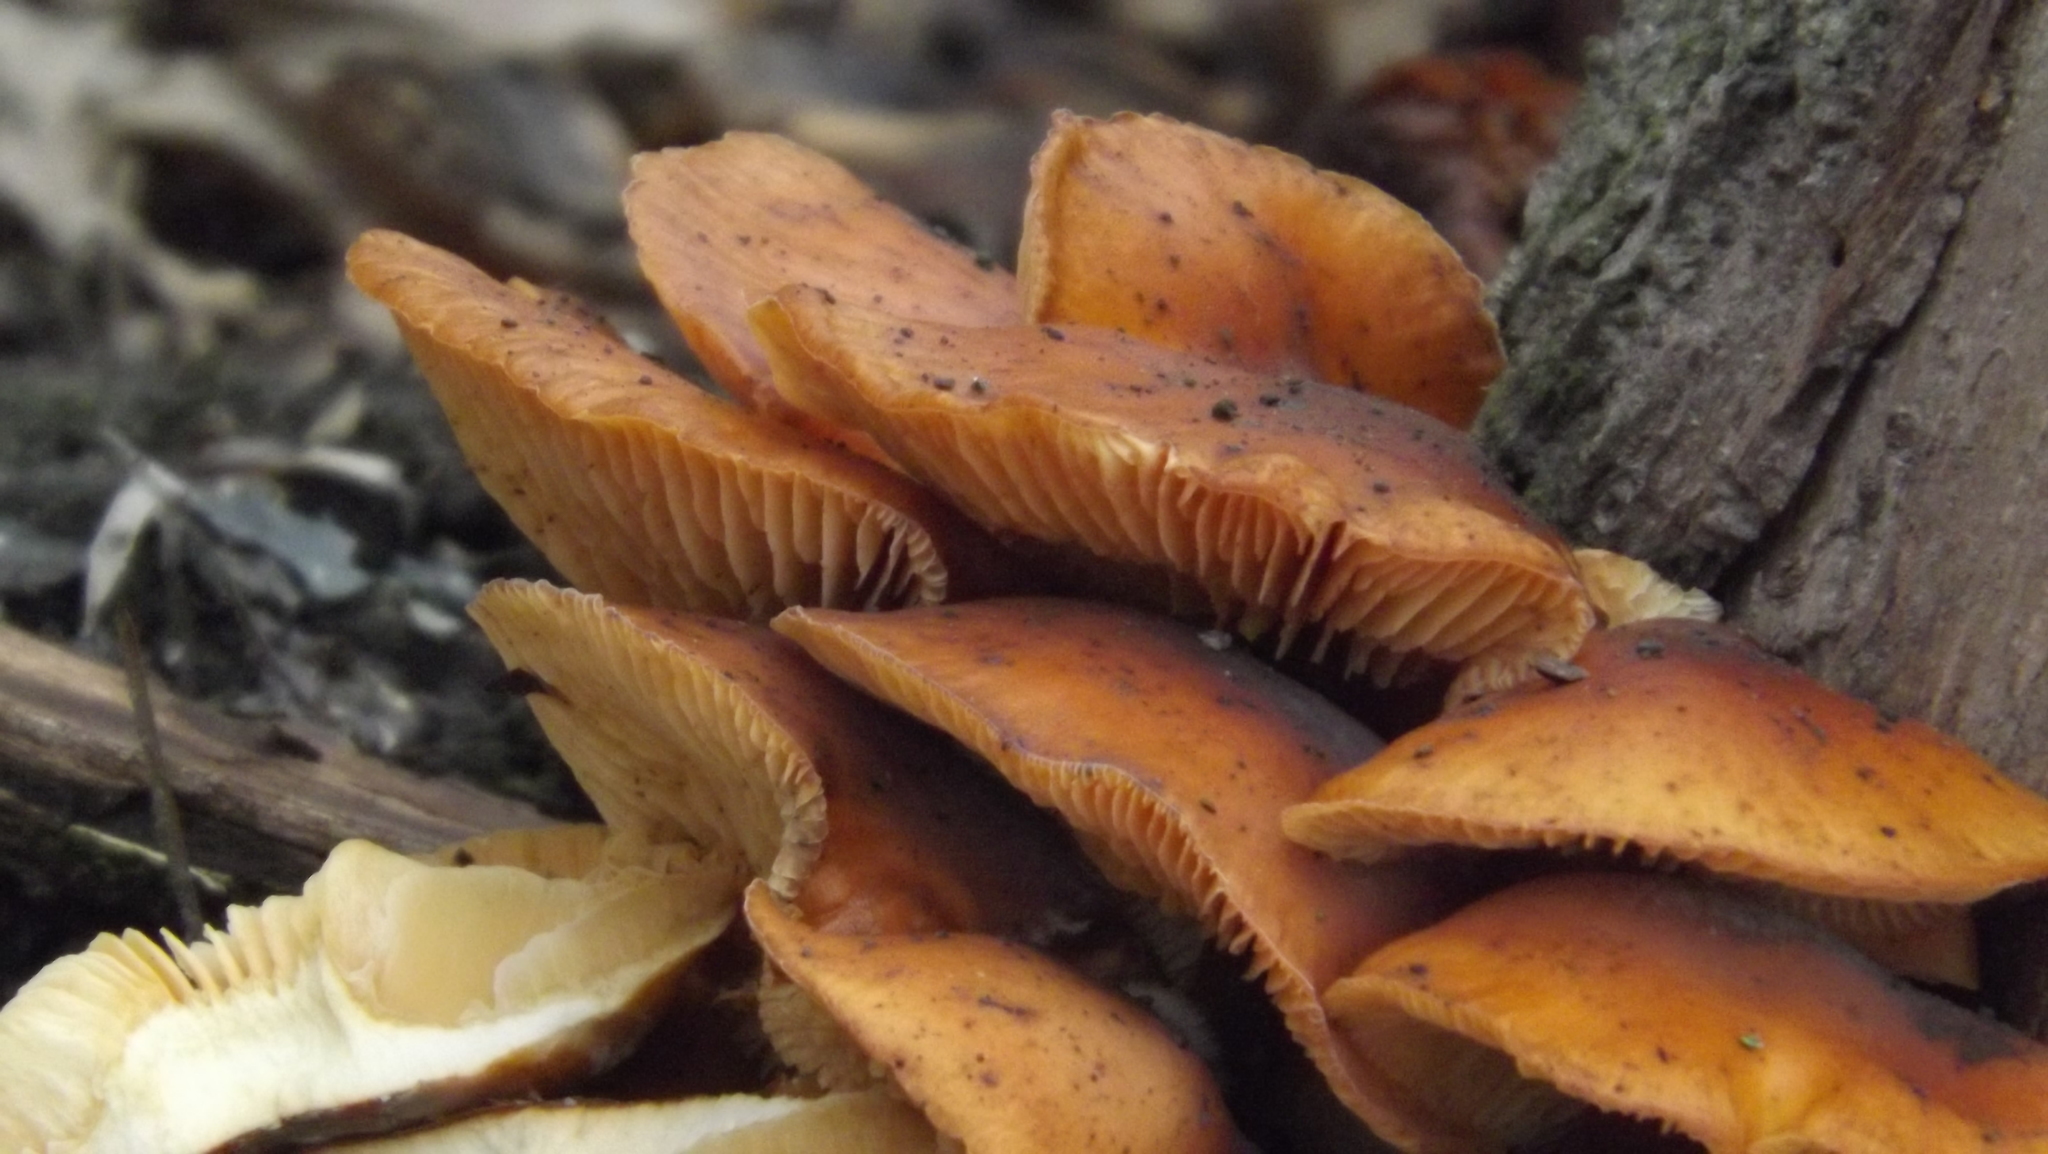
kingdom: Fungi
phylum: Basidiomycota
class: Agaricomycetes
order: Agaricales
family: Physalacriaceae
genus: Flammulina
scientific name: Flammulina
